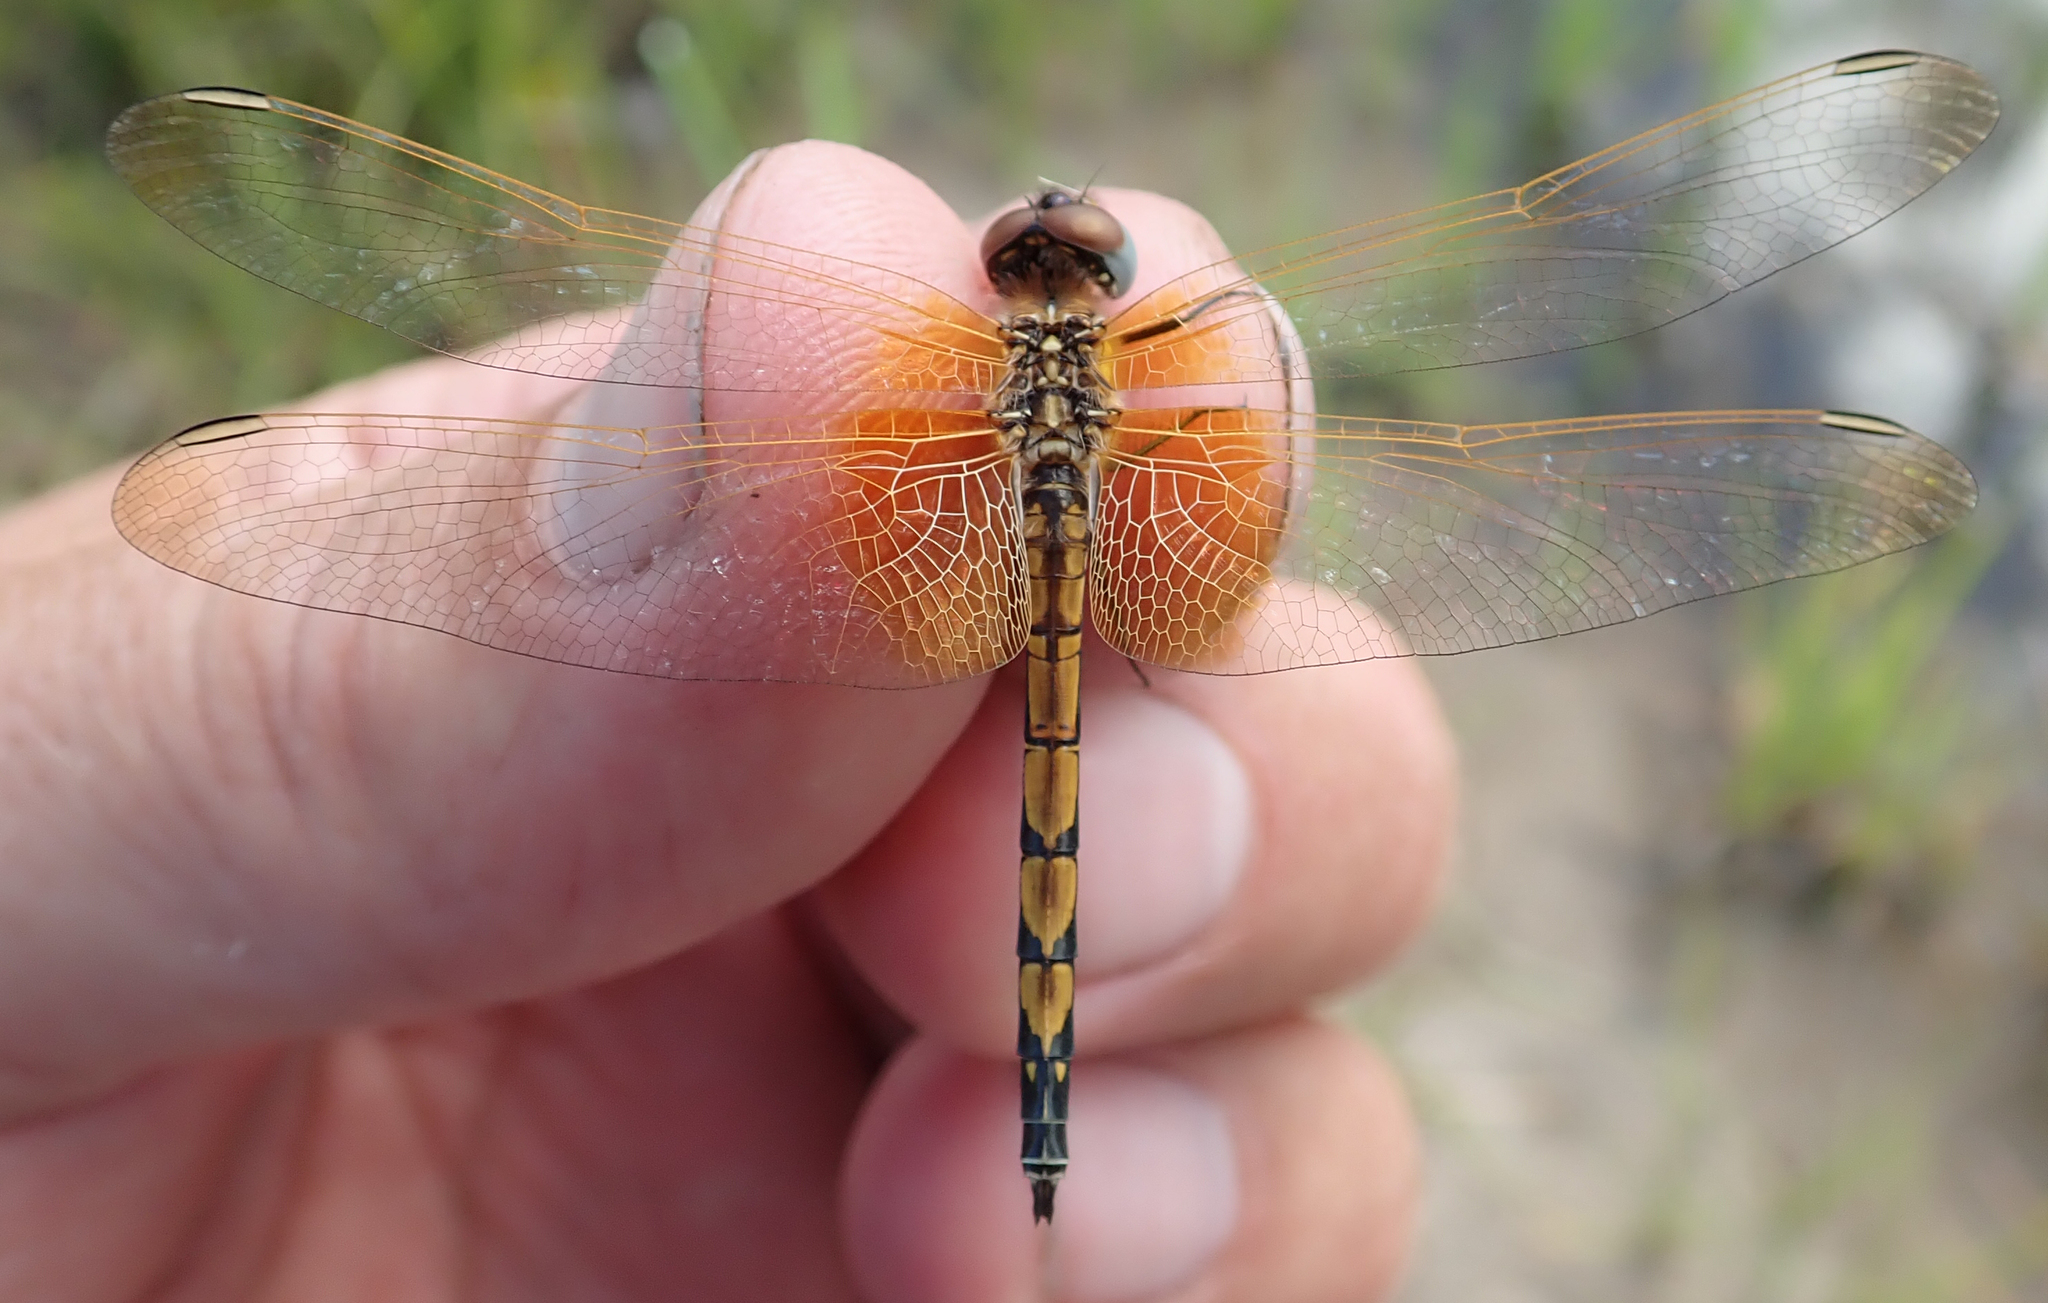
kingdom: Animalia
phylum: Arthropoda
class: Insecta
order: Odonata
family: Libellulidae
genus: Trithemis
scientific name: Trithemis monardi
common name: Monard's dropwing
